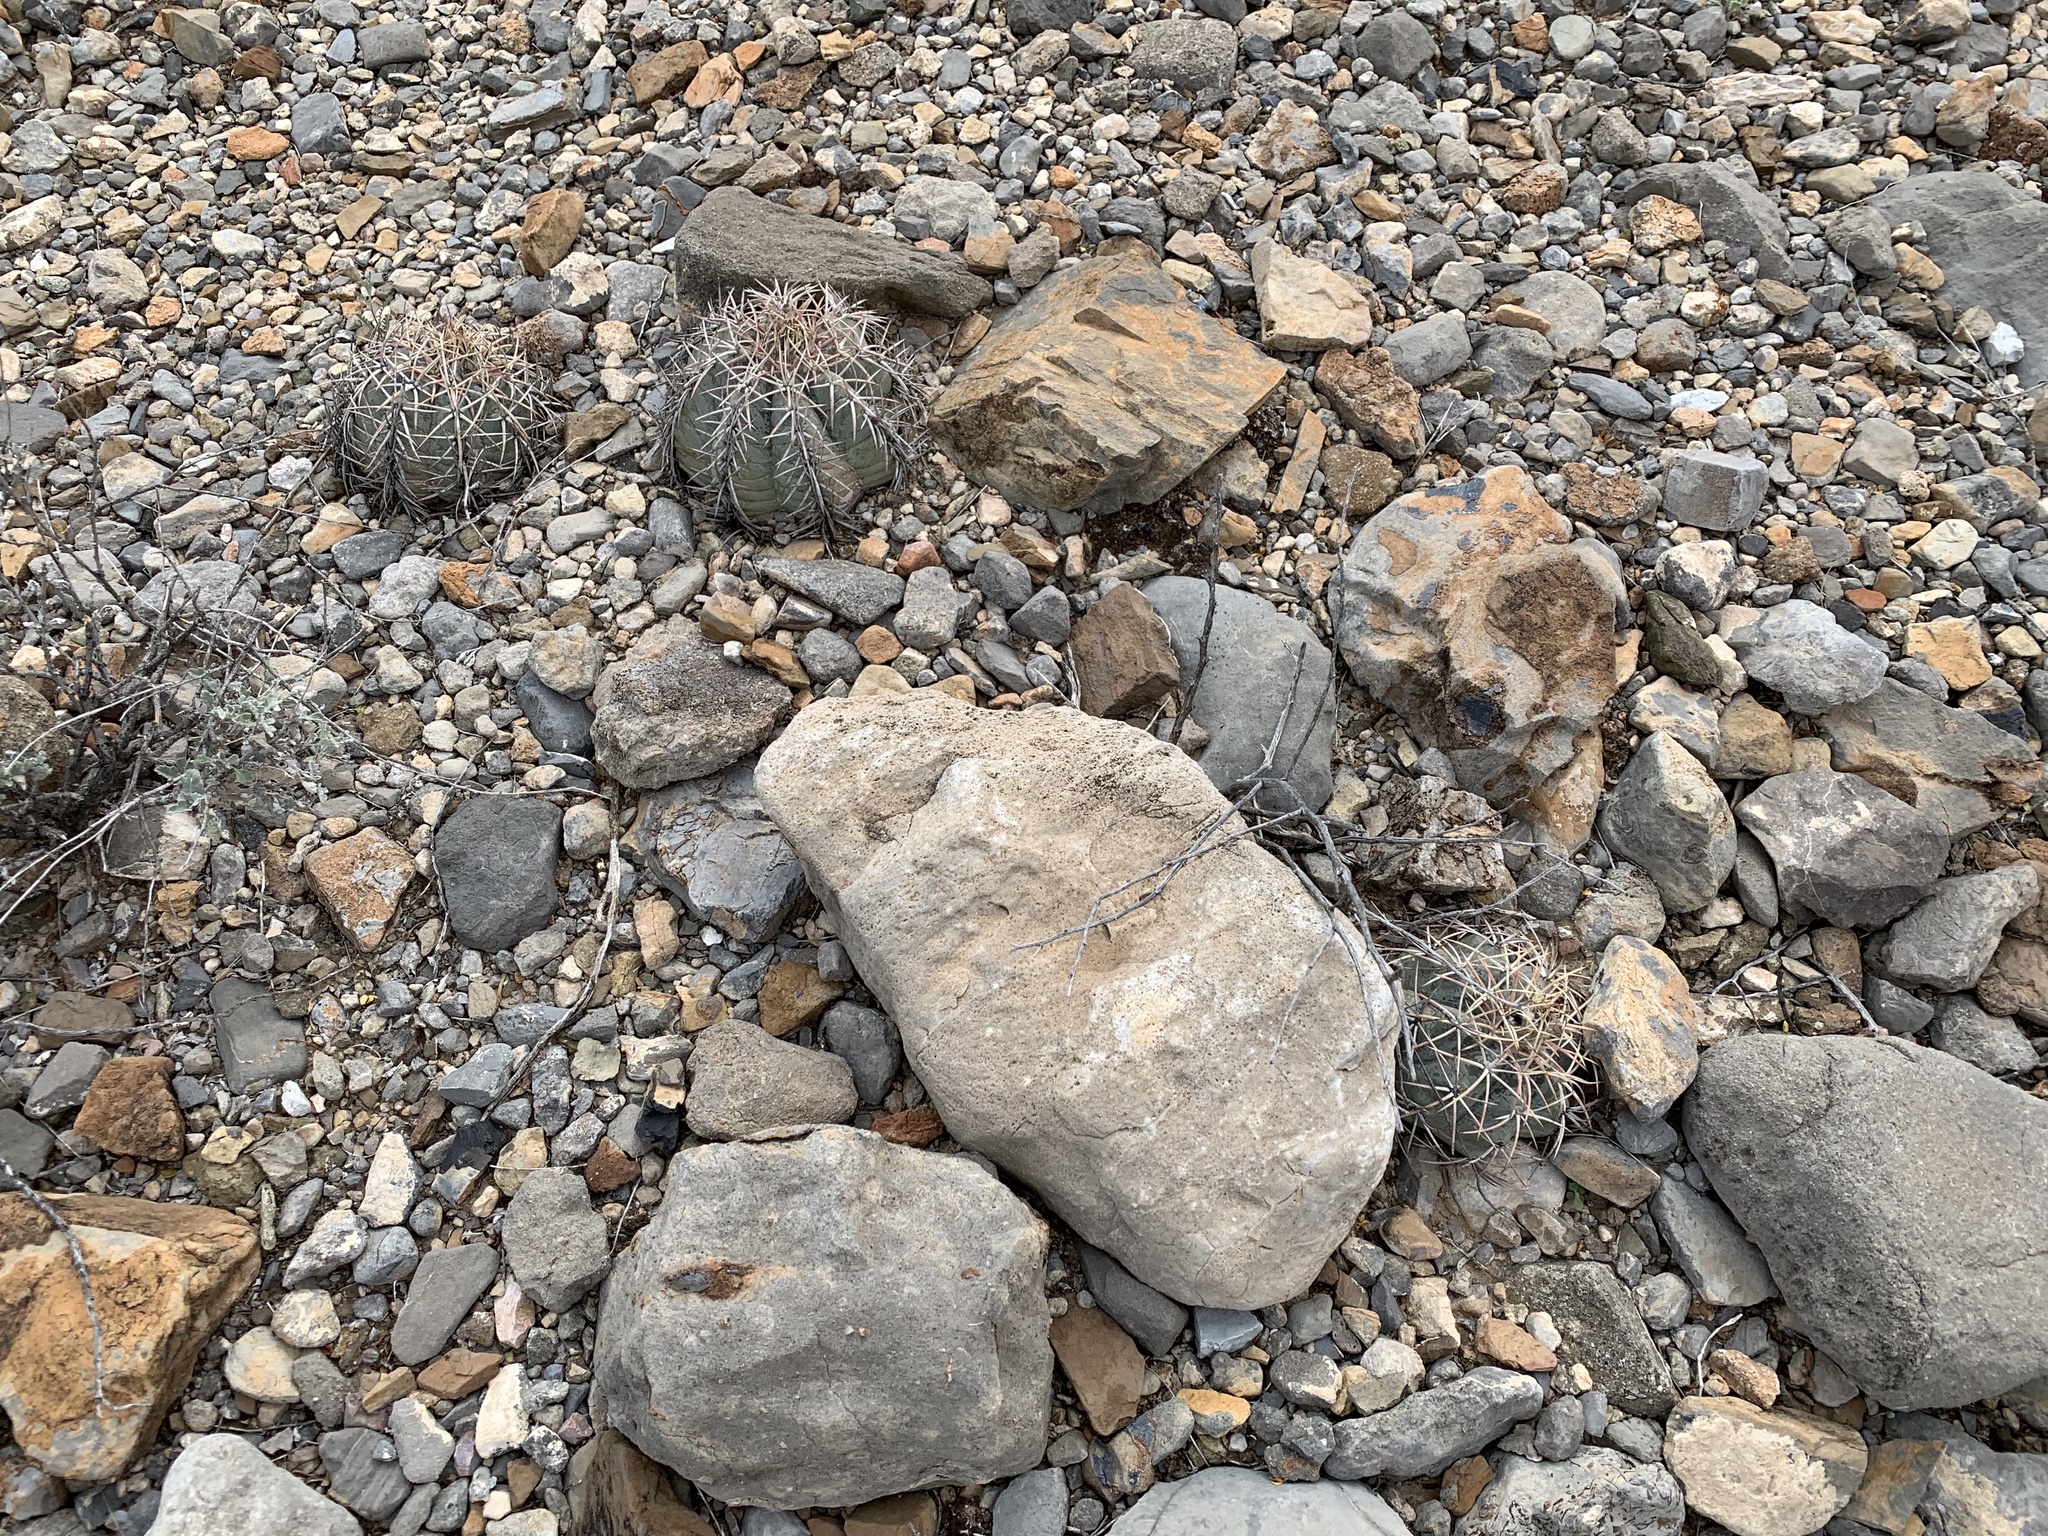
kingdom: Plantae
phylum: Tracheophyta
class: Magnoliopsida
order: Caryophyllales
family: Cactaceae
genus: Echinocactus
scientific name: Echinocactus horizonthalonius
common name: Devilshead
